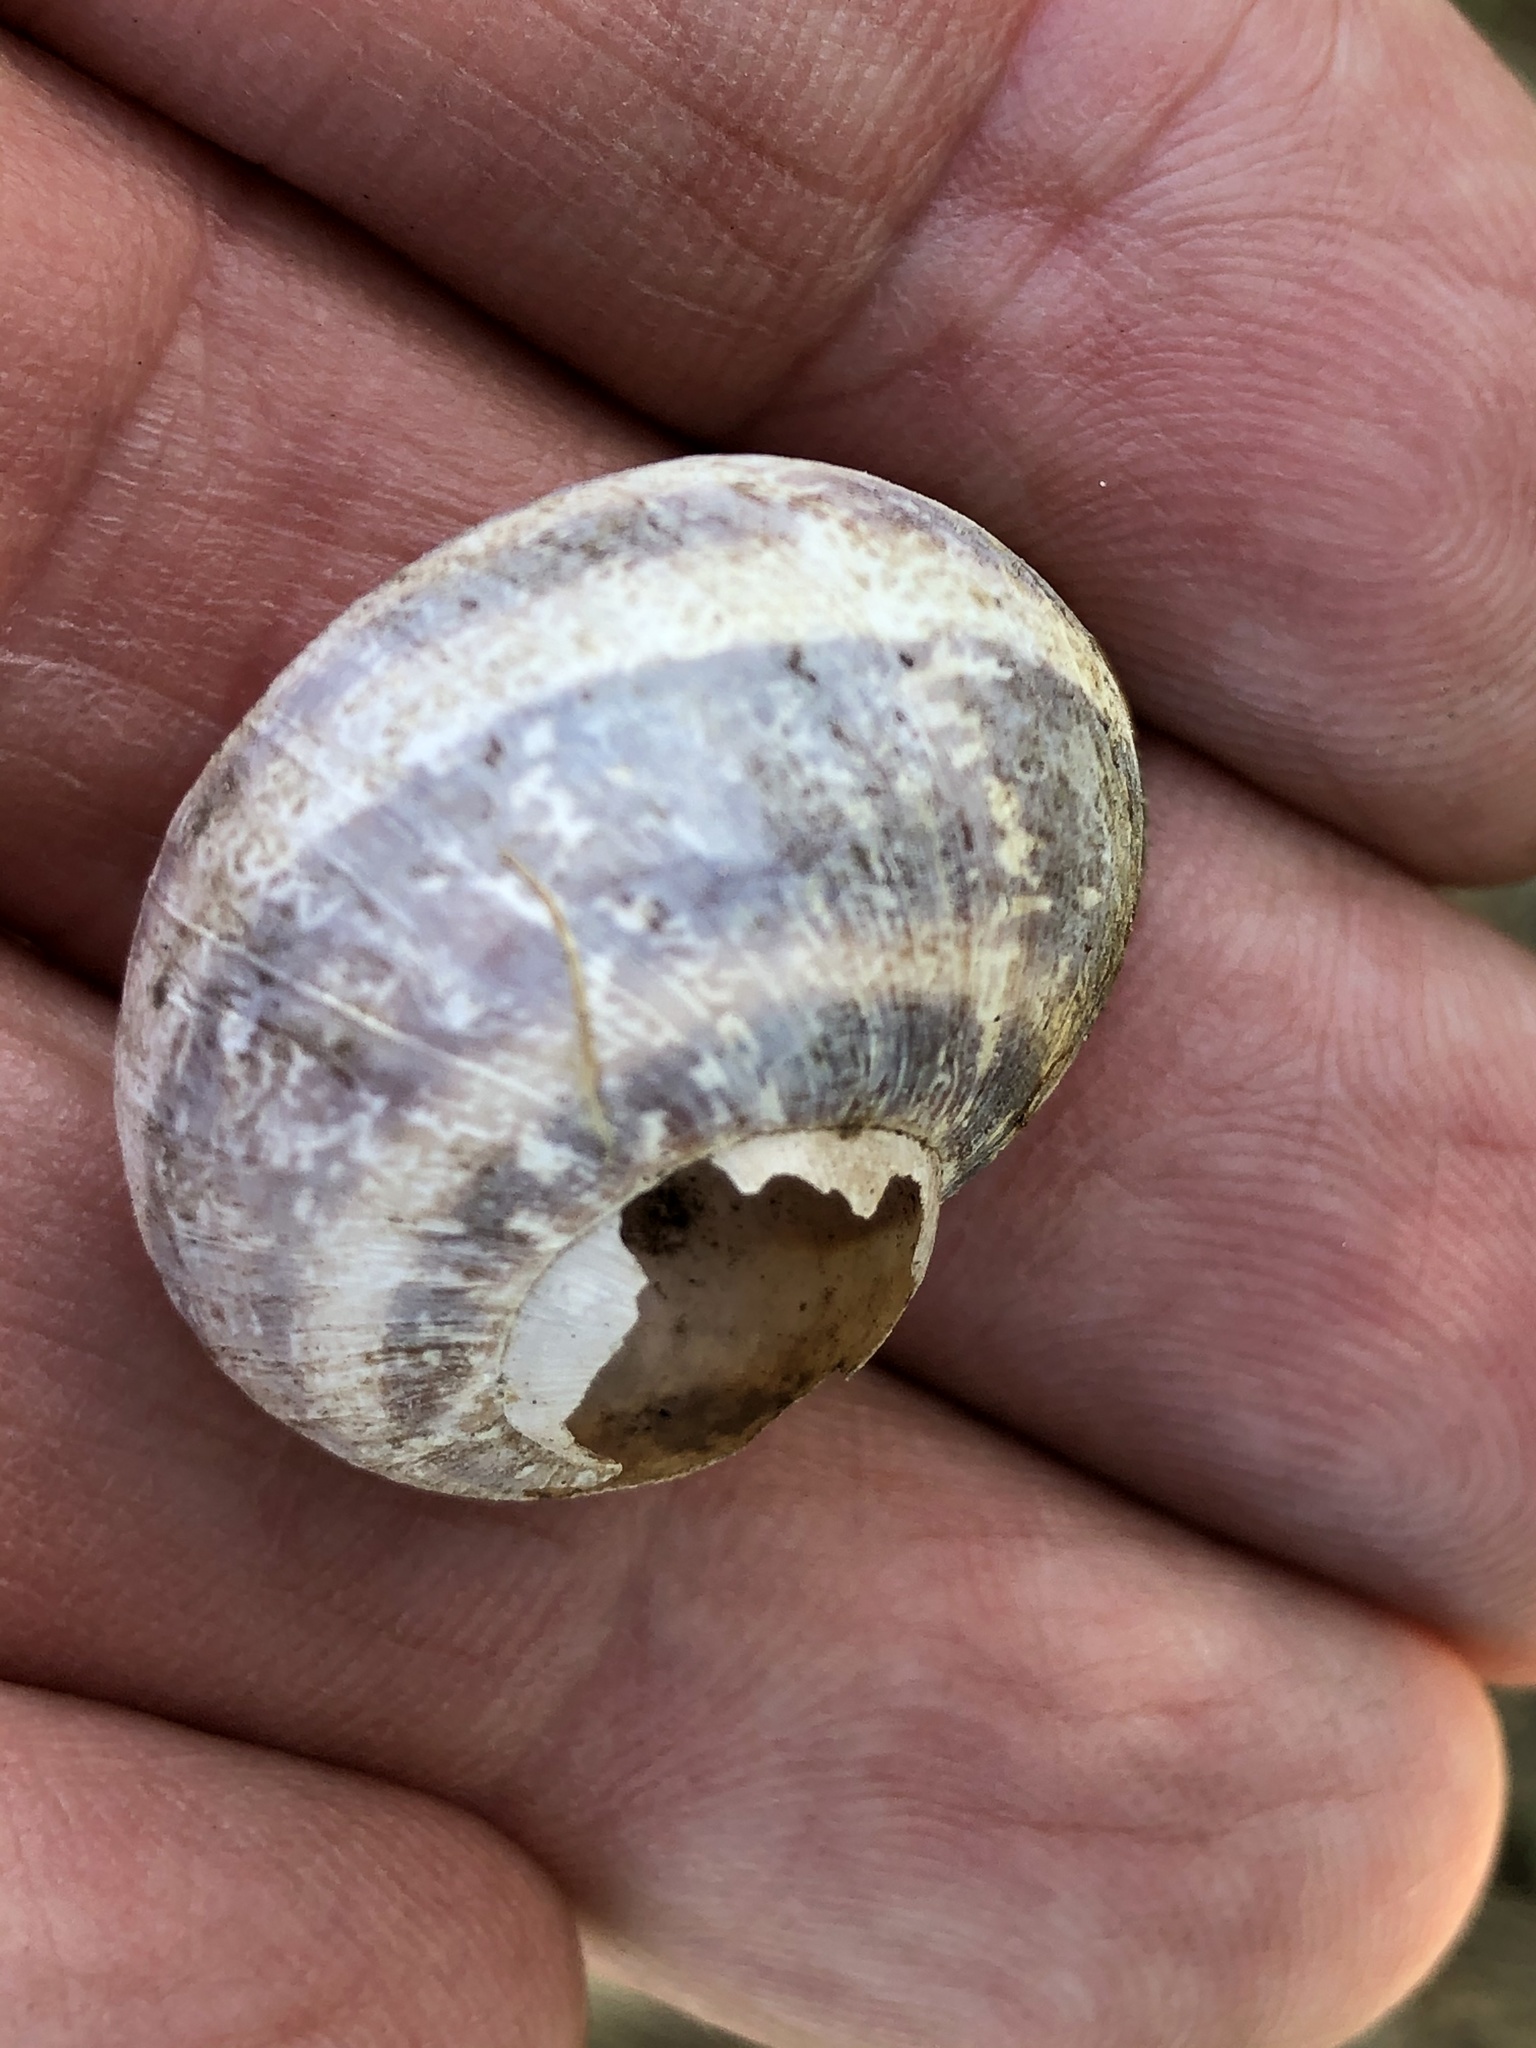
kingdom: Animalia
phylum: Mollusca
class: Gastropoda
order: Stylommatophora
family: Helicidae
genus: Cornu
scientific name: Cornu aspersum
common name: Brown garden snail
